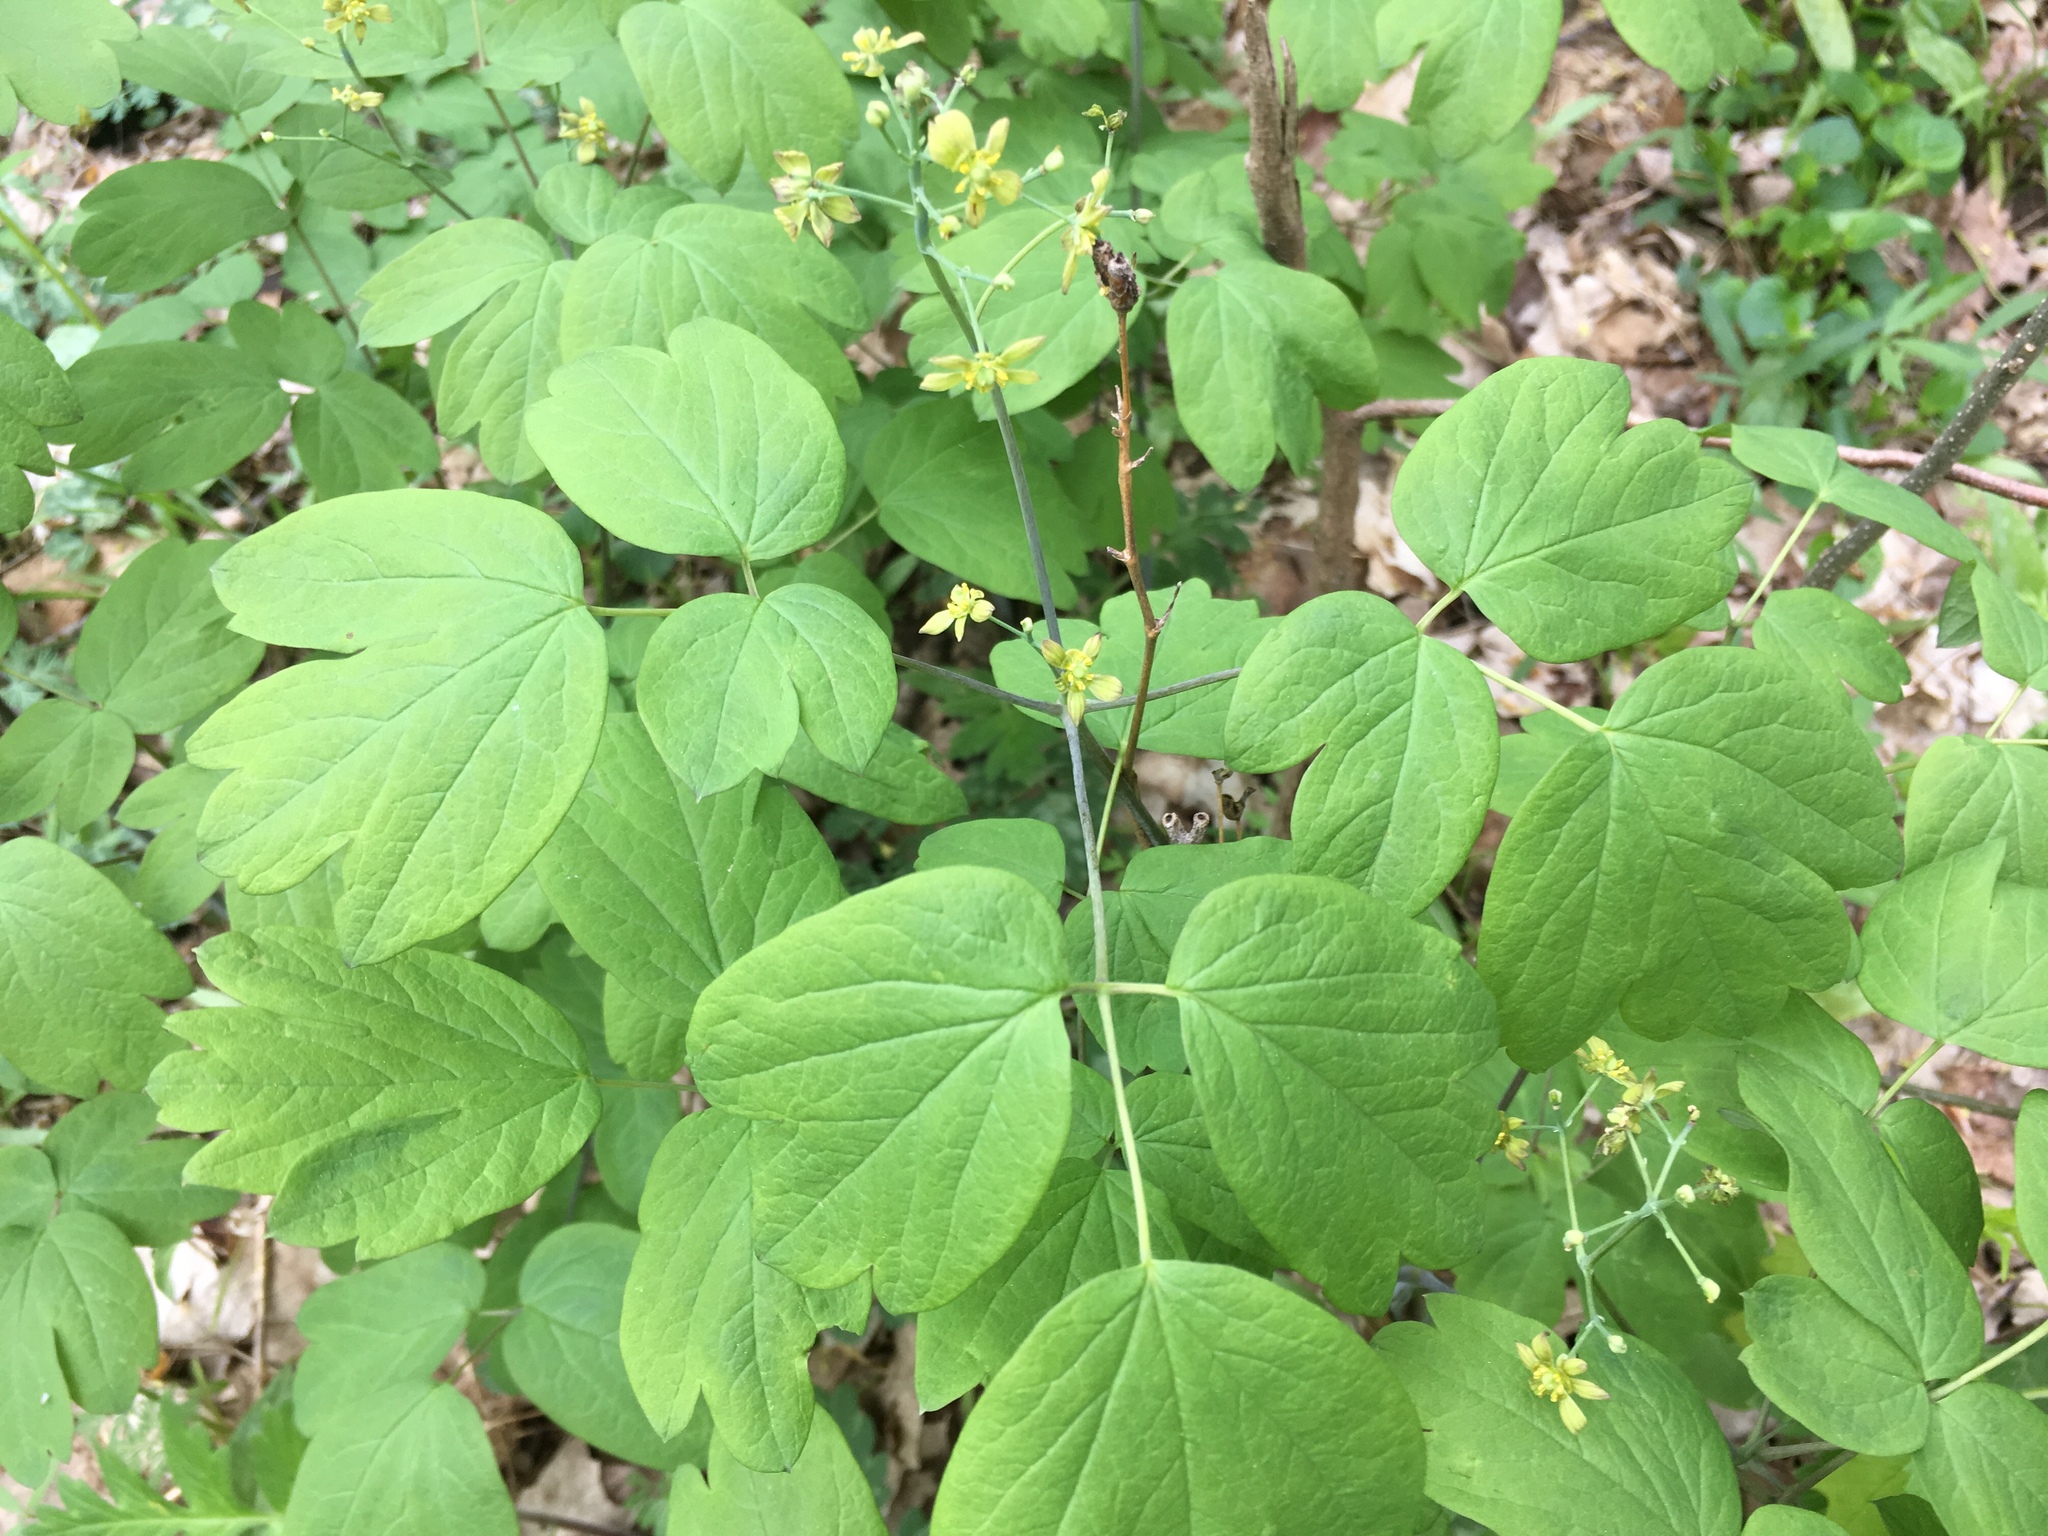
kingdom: Plantae
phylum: Tracheophyta
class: Magnoliopsida
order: Ranunculales
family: Berberidaceae
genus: Caulophyllum
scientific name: Caulophyllum thalictroides
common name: Blue cohosh
